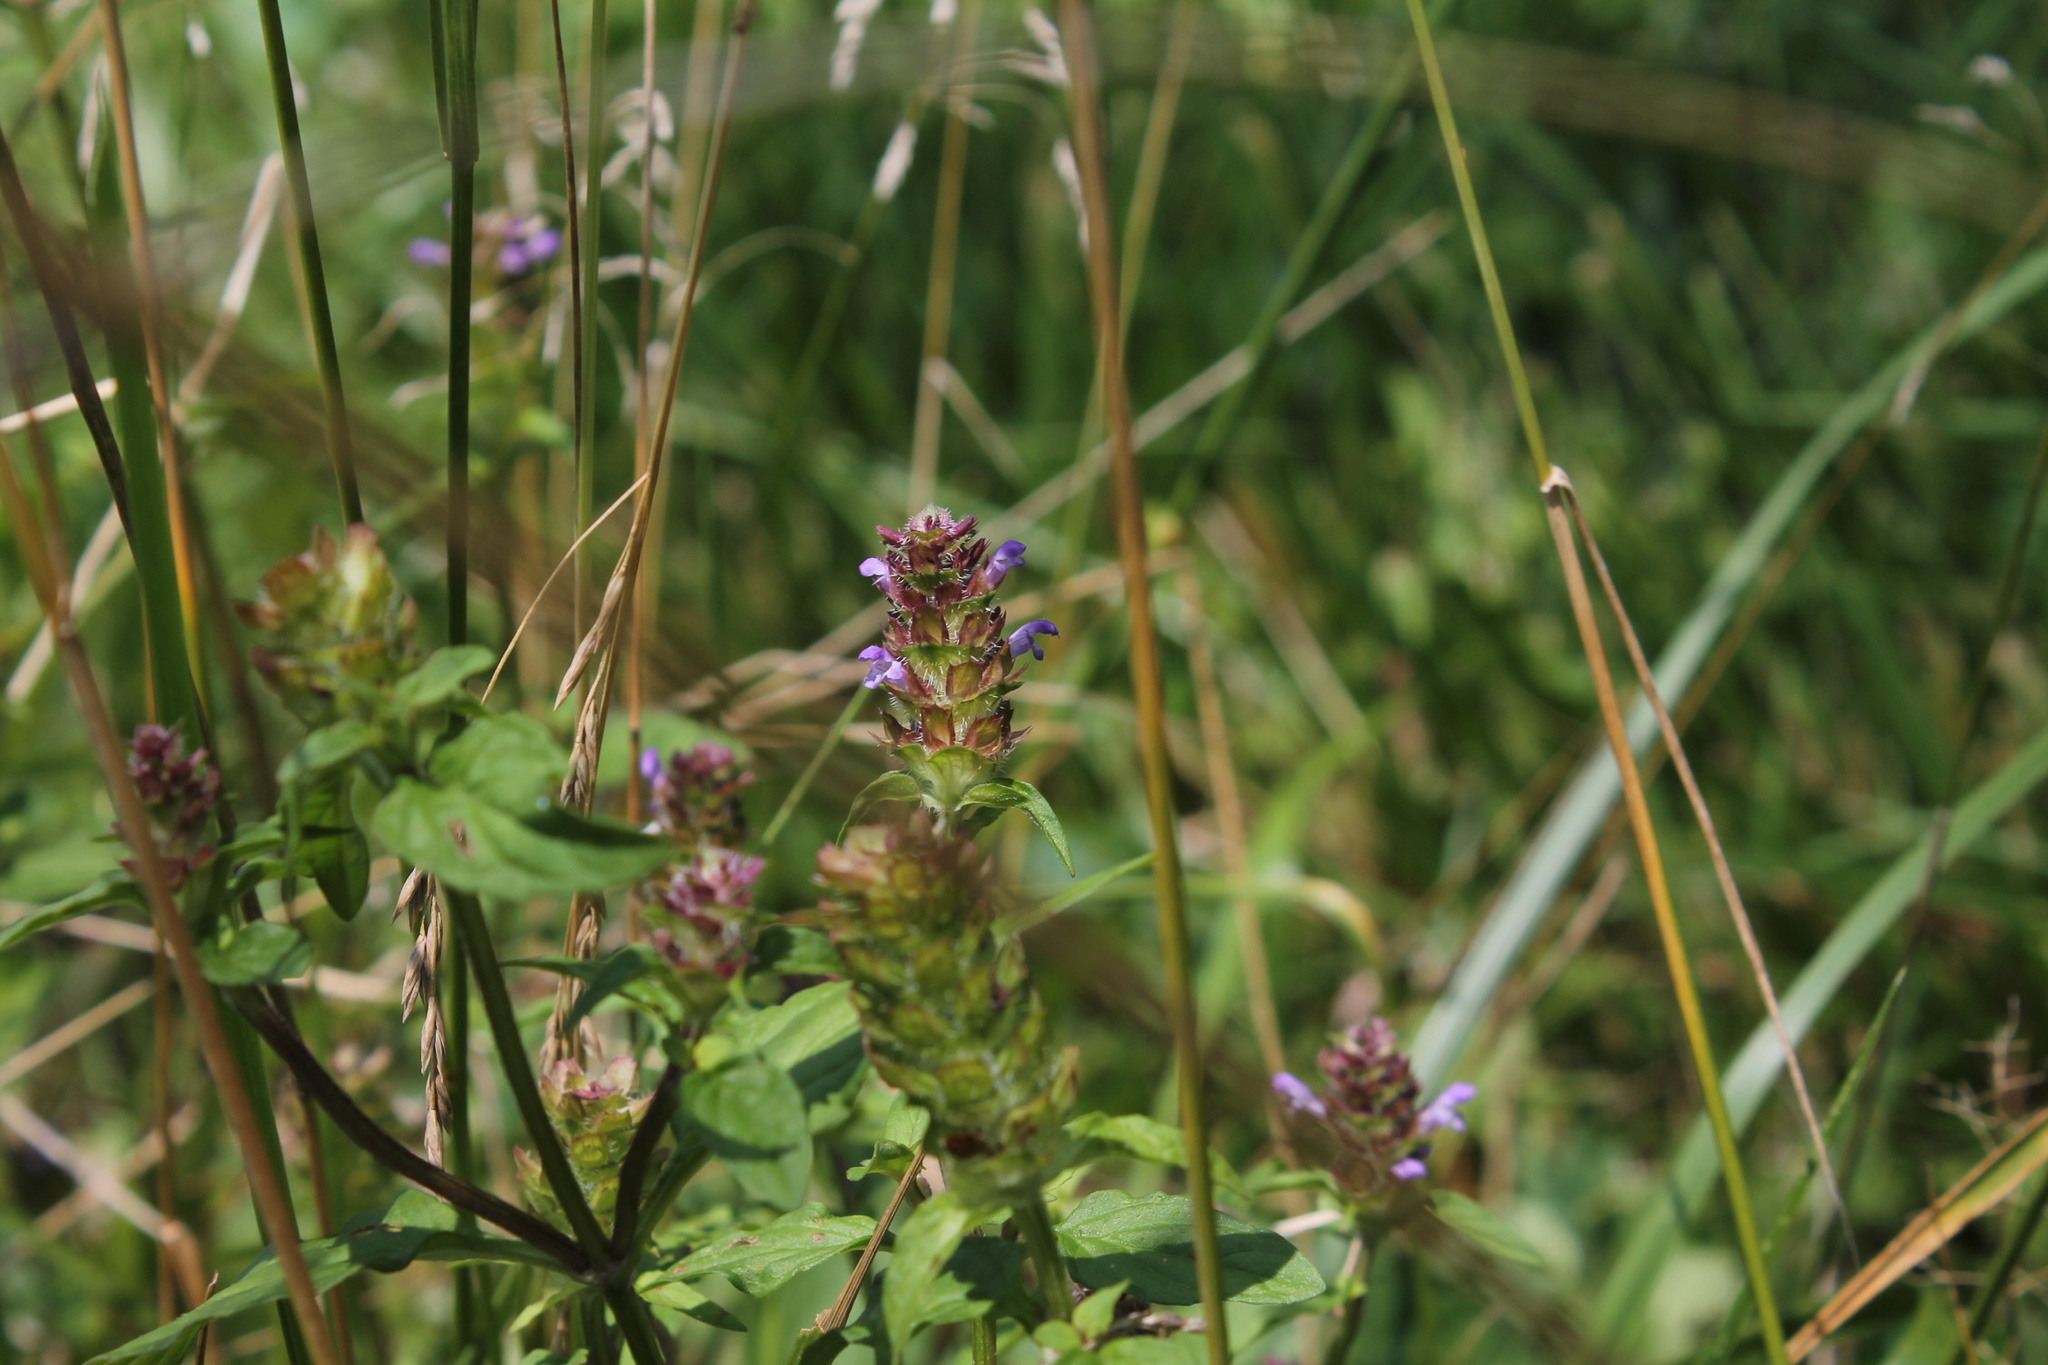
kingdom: Plantae
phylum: Tracheophyta
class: Magnoliopsida
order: Lamiales
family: Lamiaceae
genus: Prunella
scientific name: Prunella vulgaris
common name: Heal-all
